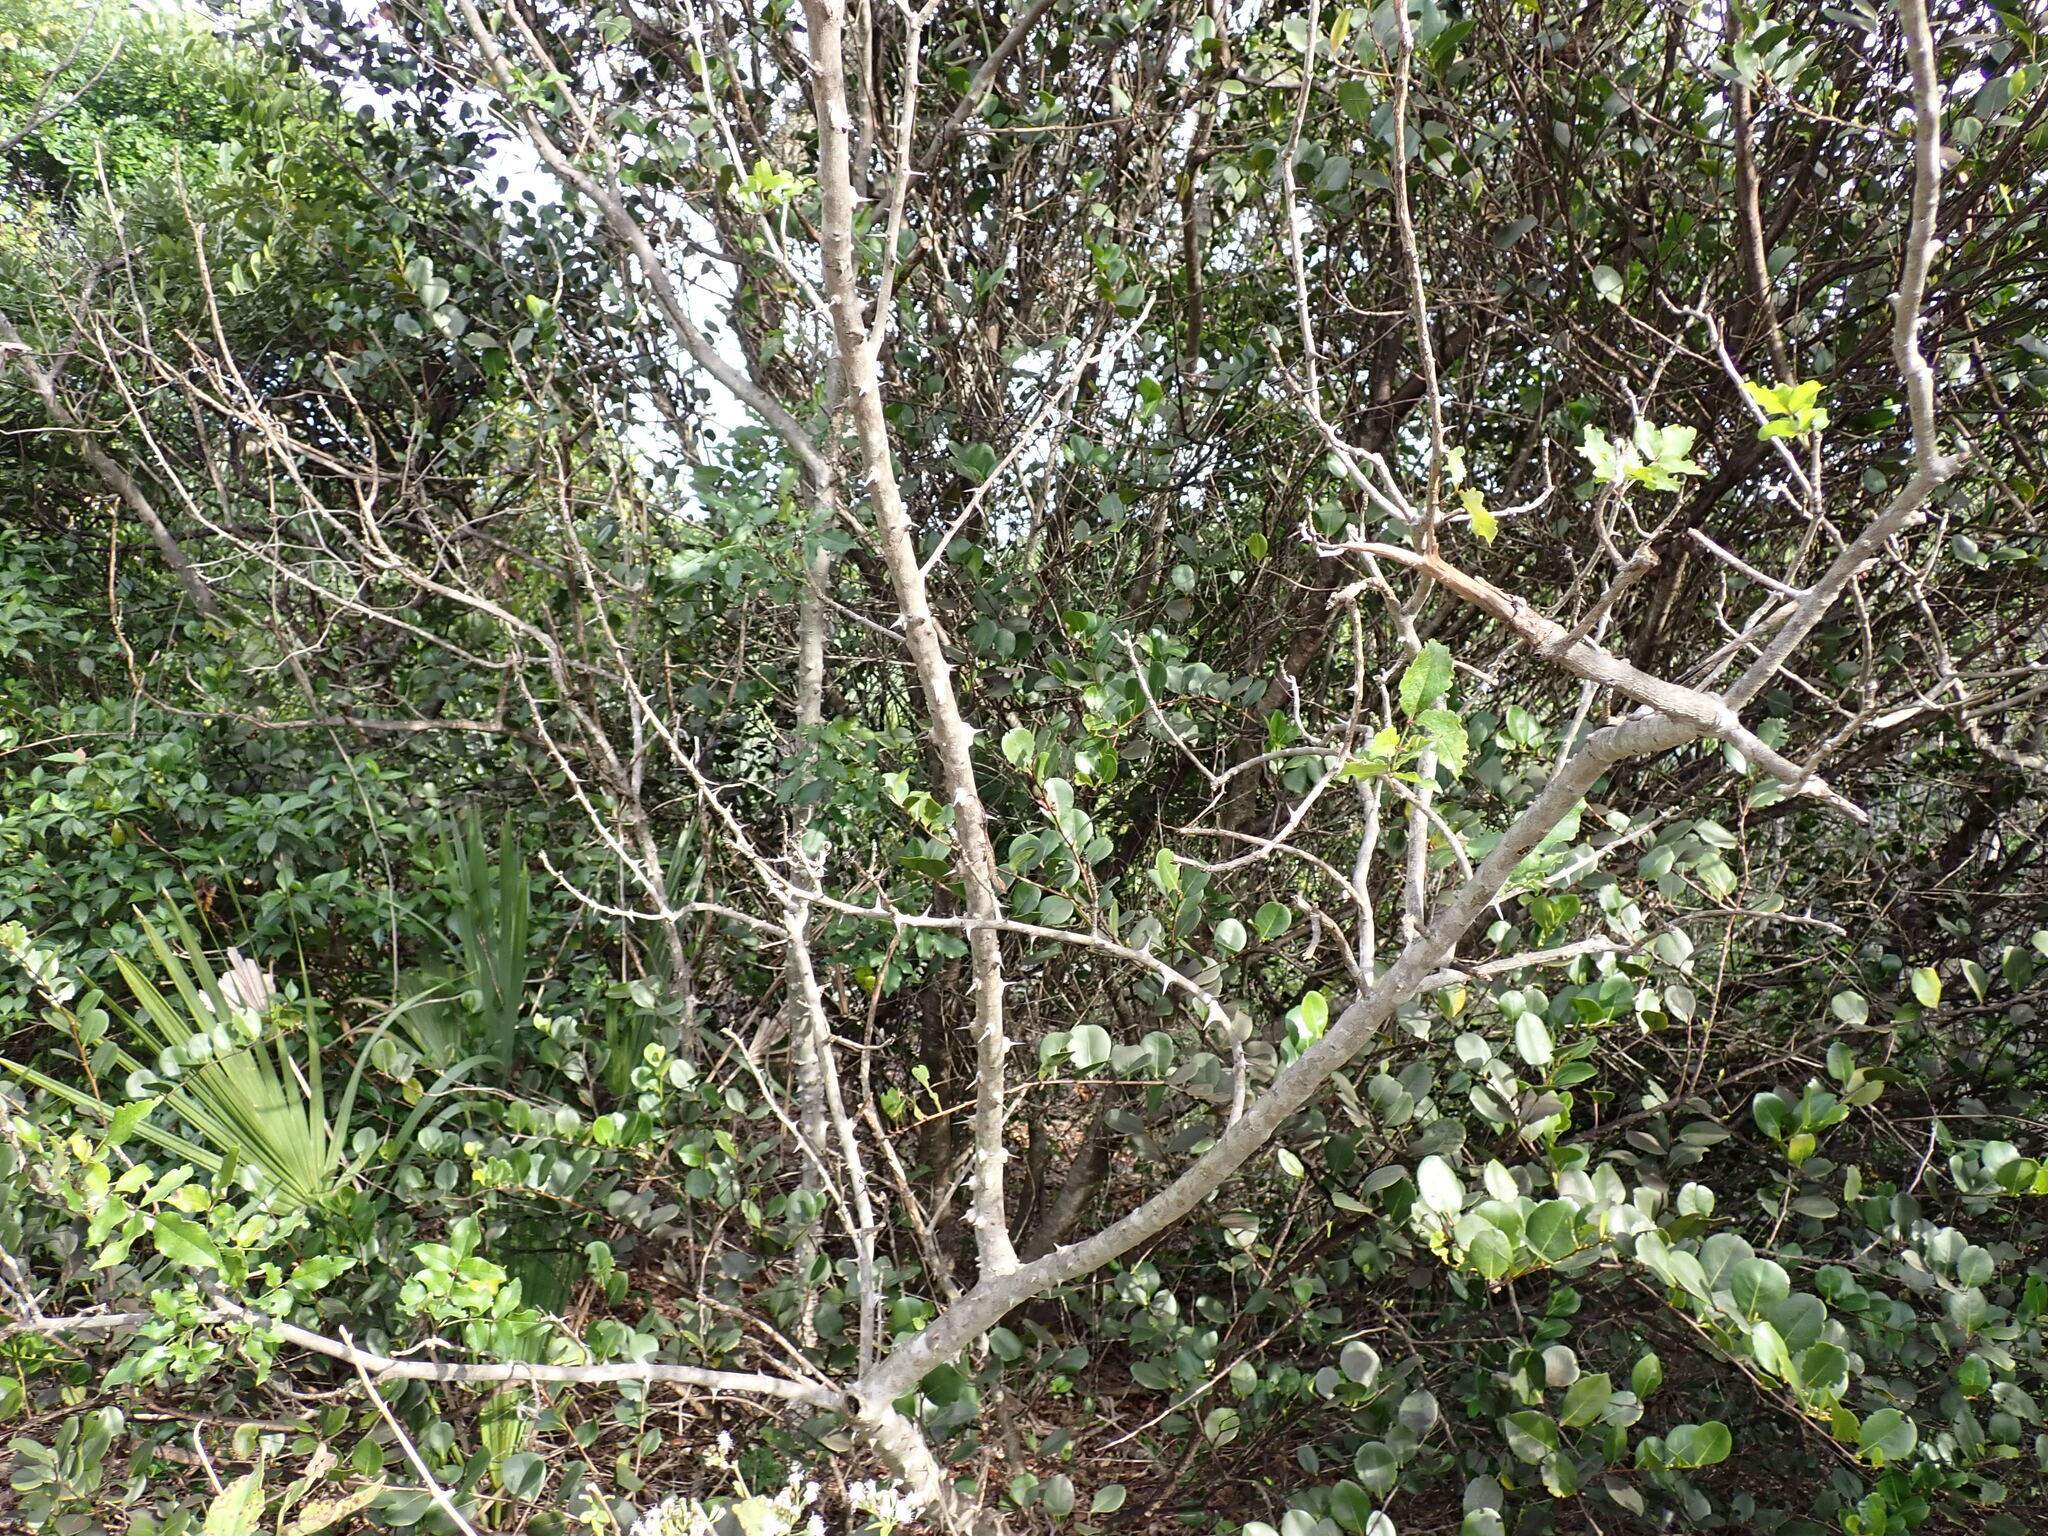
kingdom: Plantae
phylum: Tracheophyta
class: Magnoliopsida
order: Sapindales
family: Rutaceae
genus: Zanthoxylum
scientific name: Zanthoxylum clava-herculis
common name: Hercules'-club
